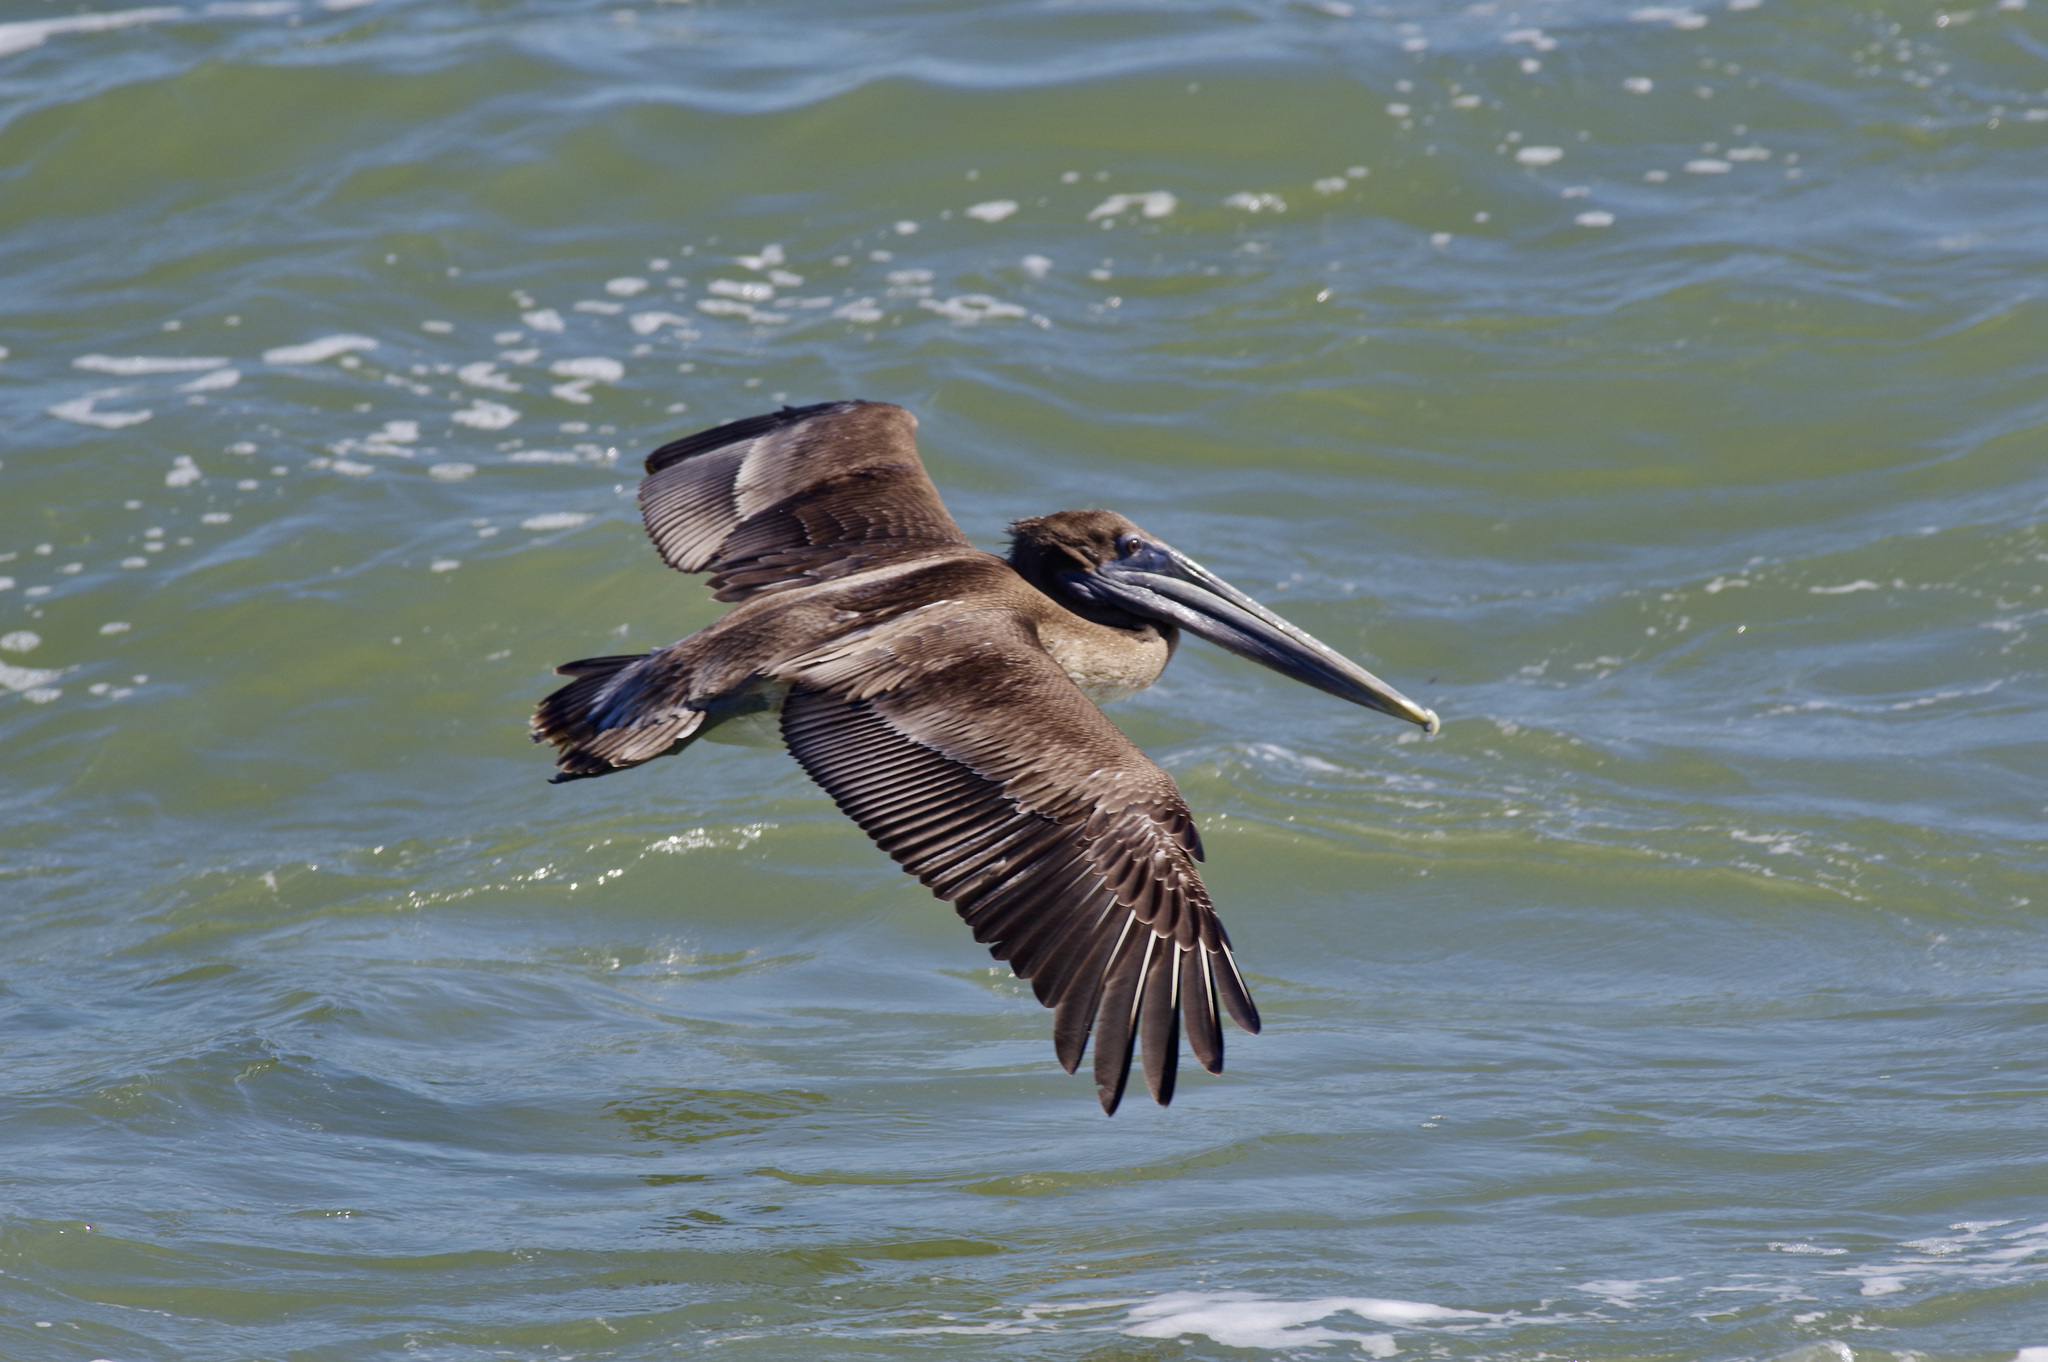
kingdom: Animalia
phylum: Chordata
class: Aves
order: Pelecaniformes
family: Pelecanidae
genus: Pelecanus
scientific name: Pelecanus occidentalis
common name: Brown pelican
